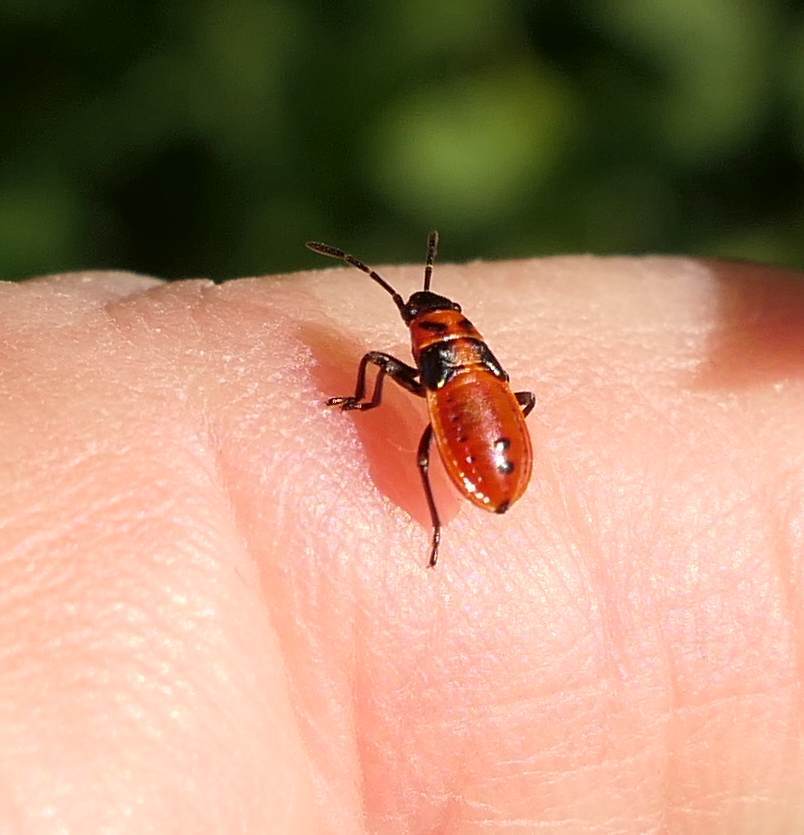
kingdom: Animalia
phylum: Arthropoda
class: Insecta
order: Hemiptera
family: Lygaeidae
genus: Lygaeus
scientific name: Lygaeus kalmii
